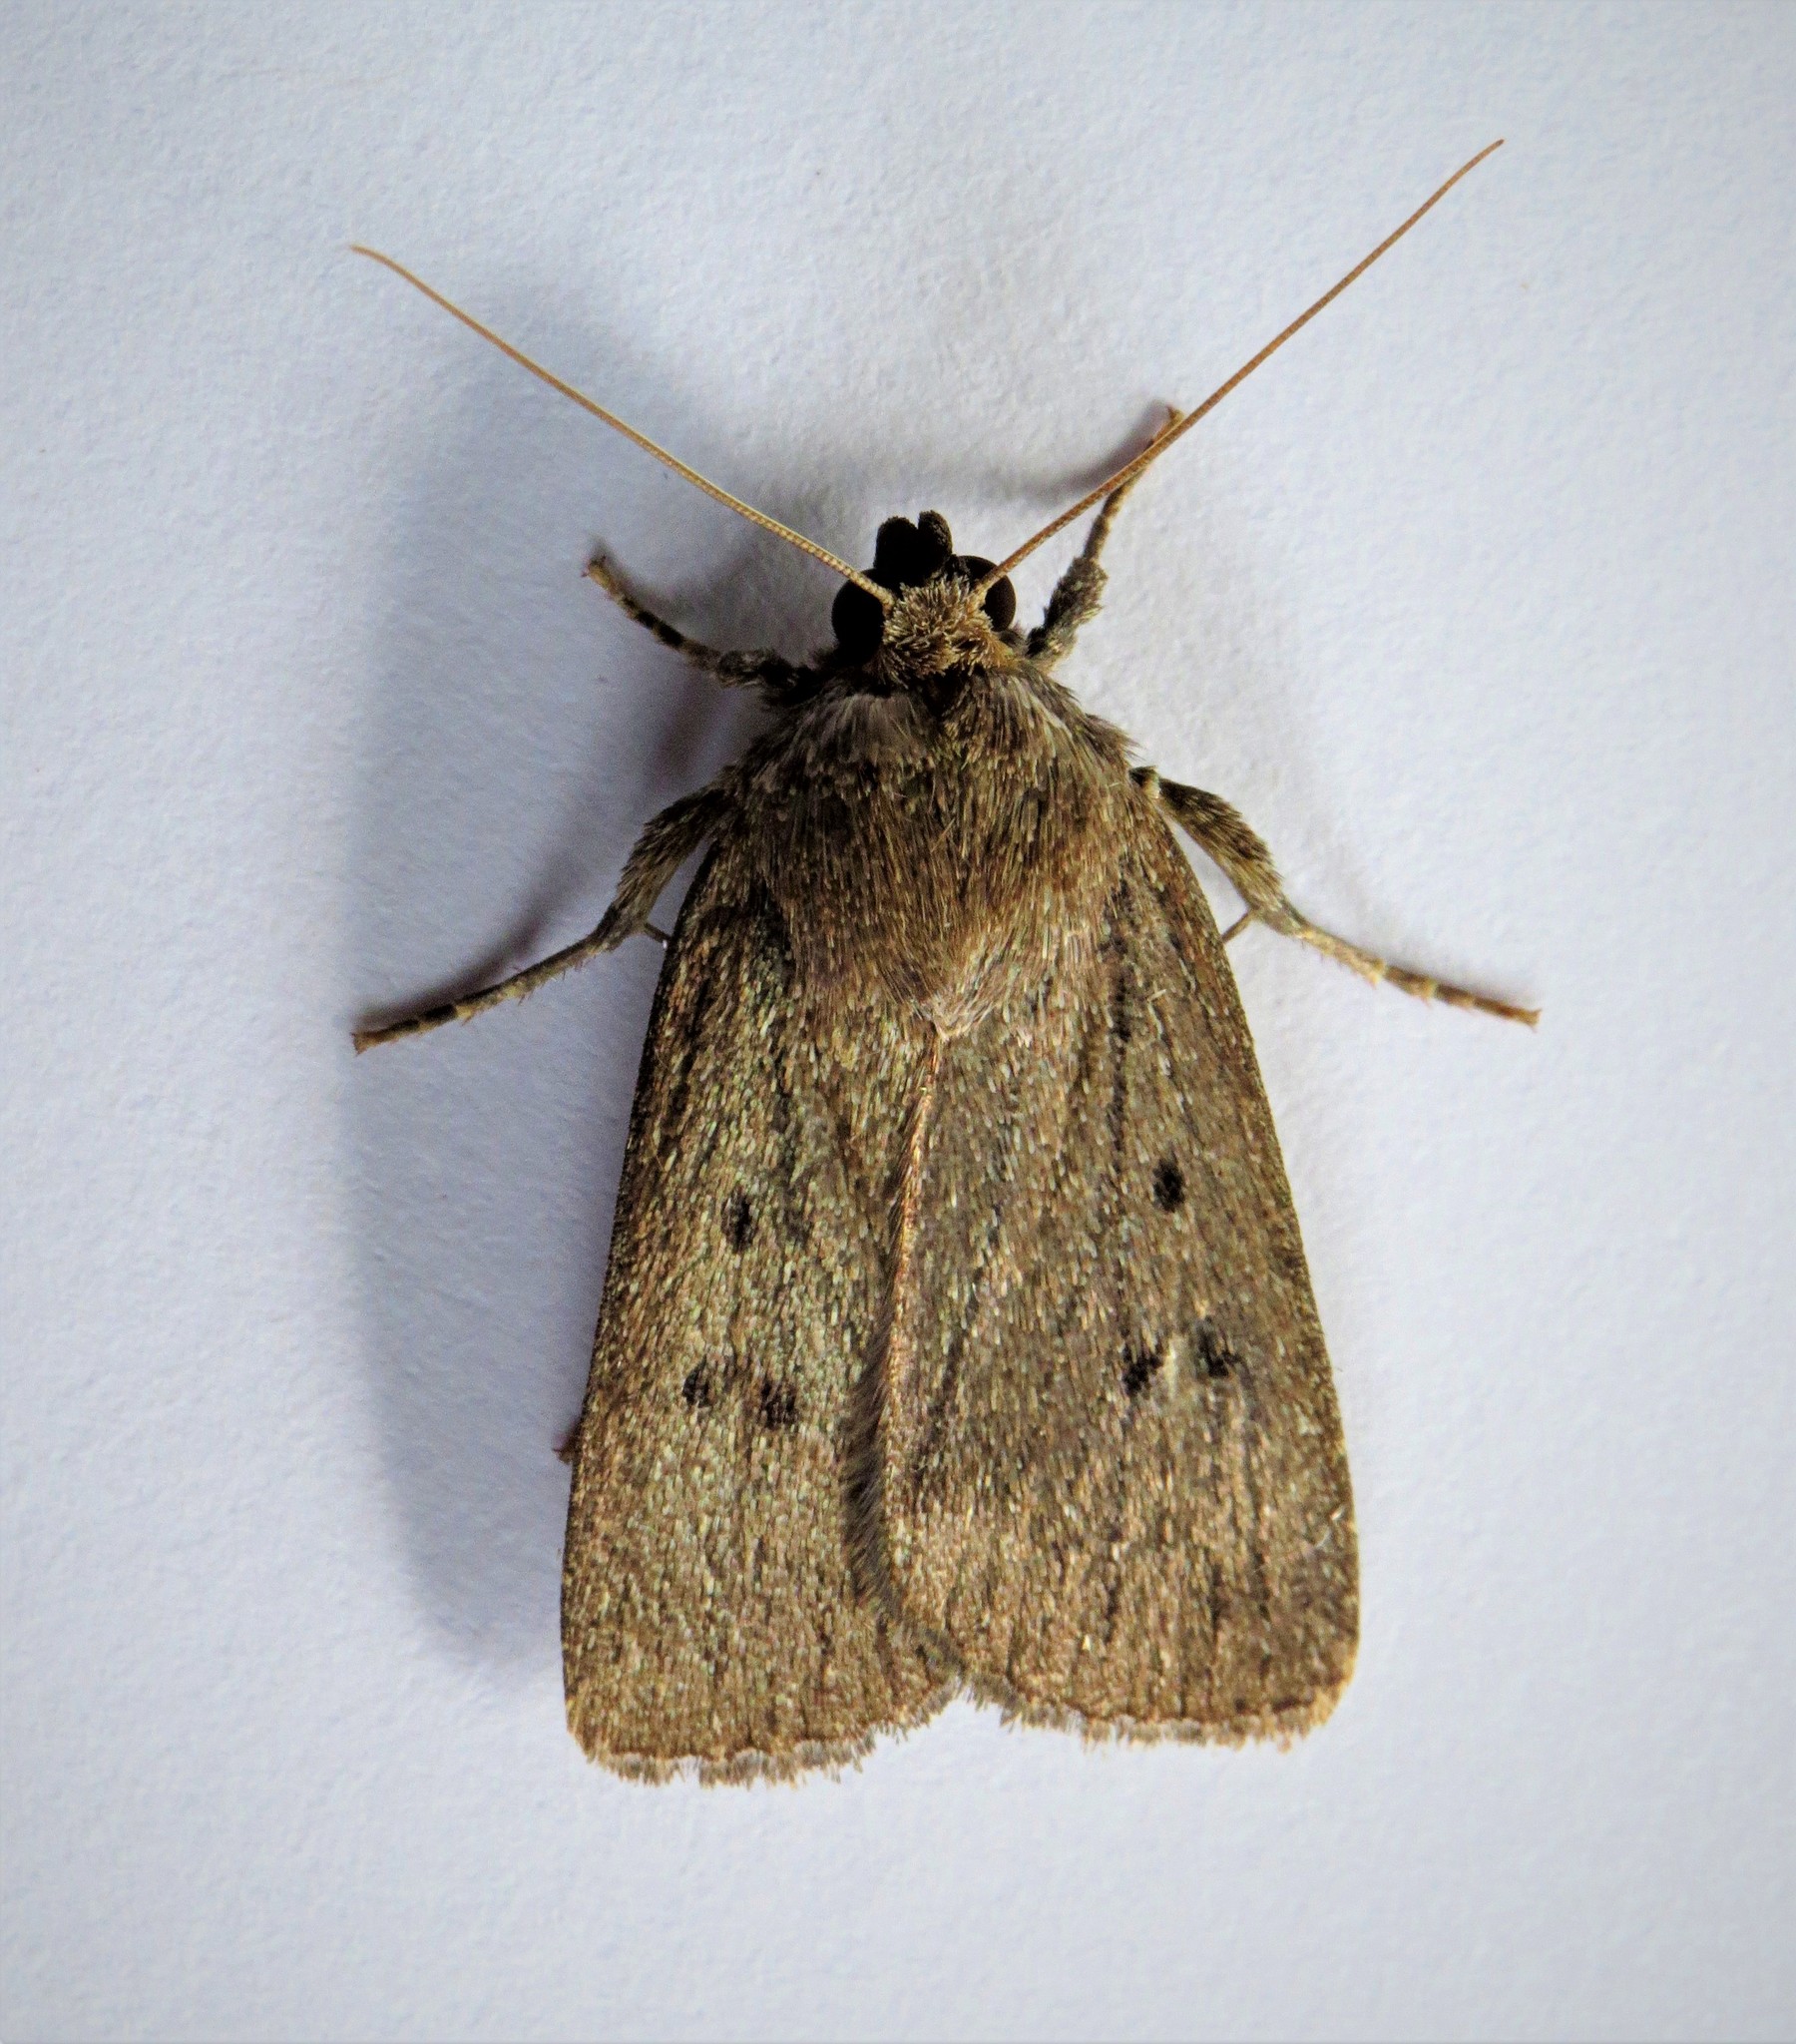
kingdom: Animalia
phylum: Arthropoda
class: Insecta
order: Lepidoptera
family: Noctuidae
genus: Amphipyra
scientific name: Amphipyra tragopoginis
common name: Mouse moth
